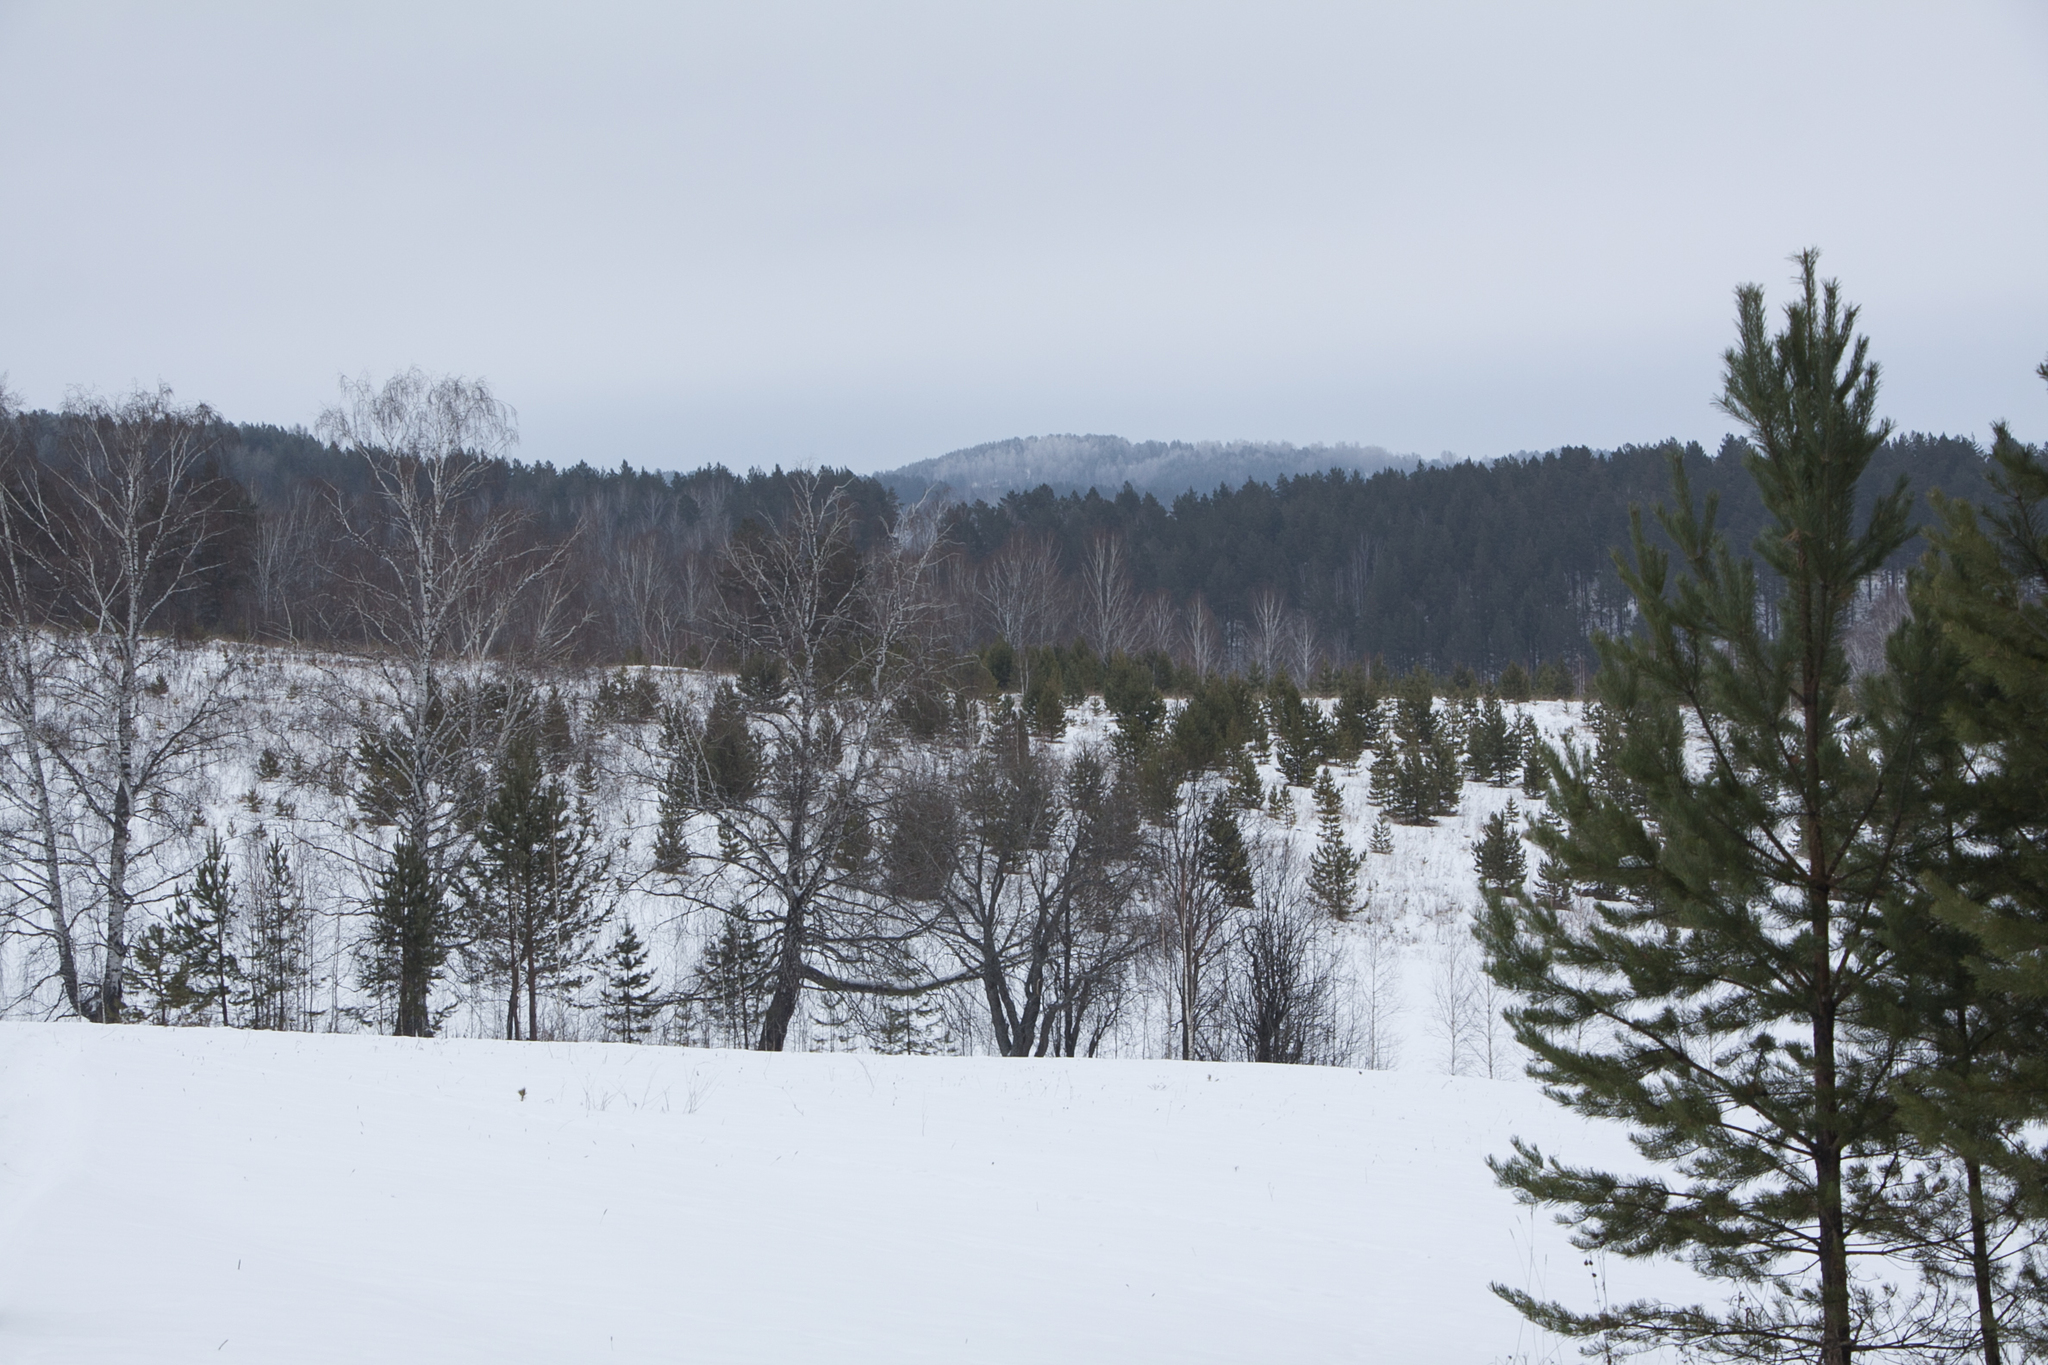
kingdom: Plantae
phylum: Tracheophyta
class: Pinopsida
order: Pinales
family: Pinaceae
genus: Pinus
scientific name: Pinus sylvestris
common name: Scots pine
